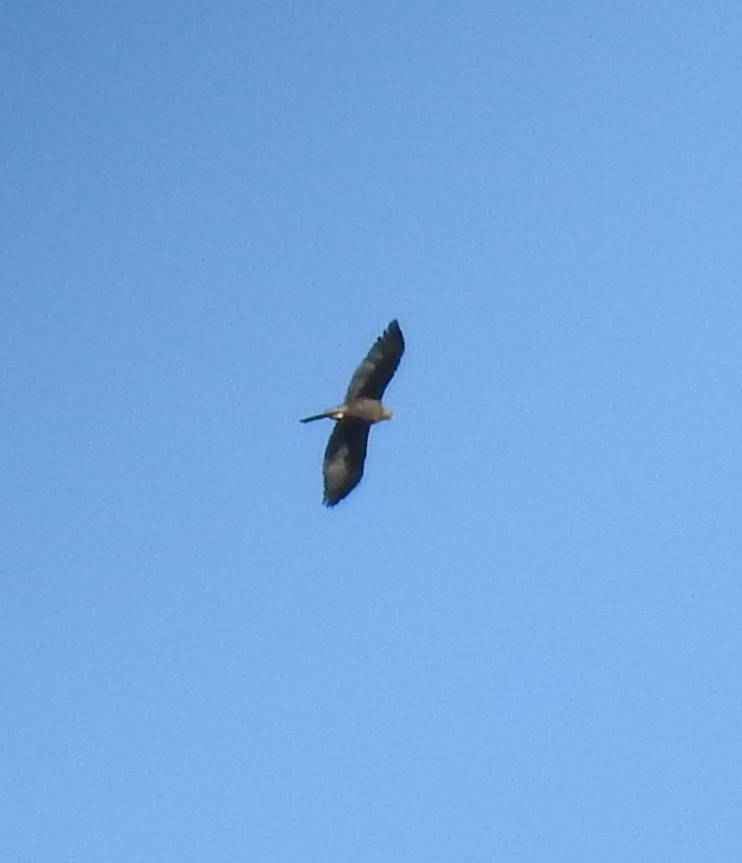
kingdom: Animalia
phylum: Chordata
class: Aves
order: Accipitriformes
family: Accipitridae
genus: Aquila
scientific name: Aquila chrysaetos
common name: Golden eagle
